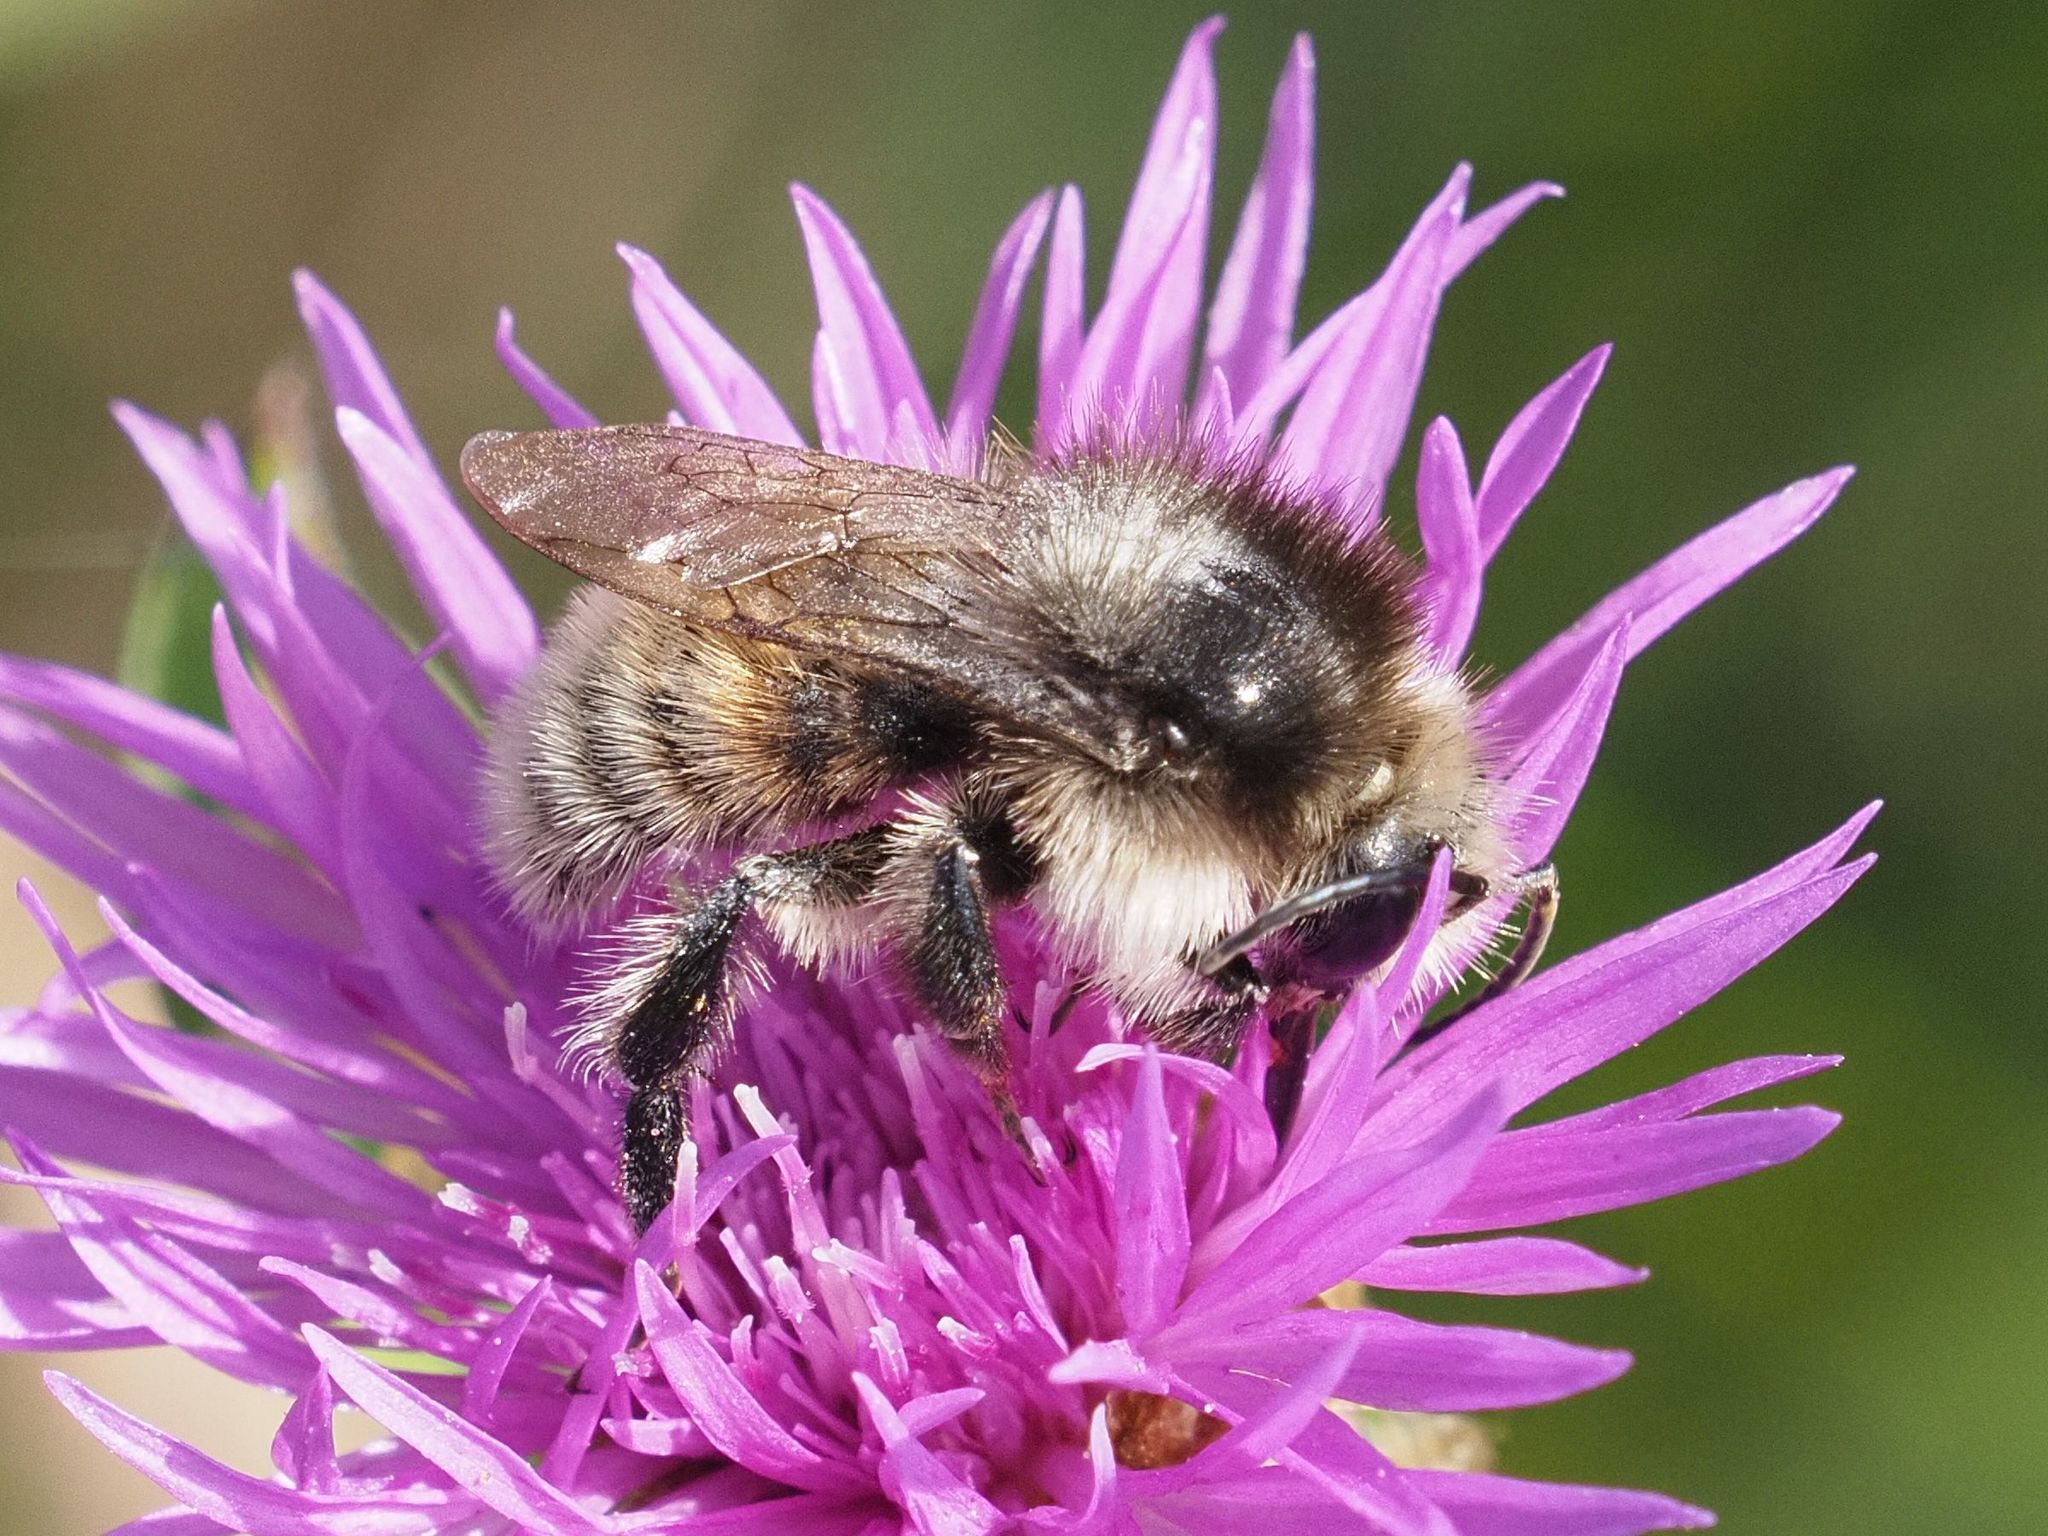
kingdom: Animalia
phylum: Arthropoda
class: Insecta
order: Hymenoptera
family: Apidae
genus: Bombus
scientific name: Bombus humilis
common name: Brown-banded carder-bee
